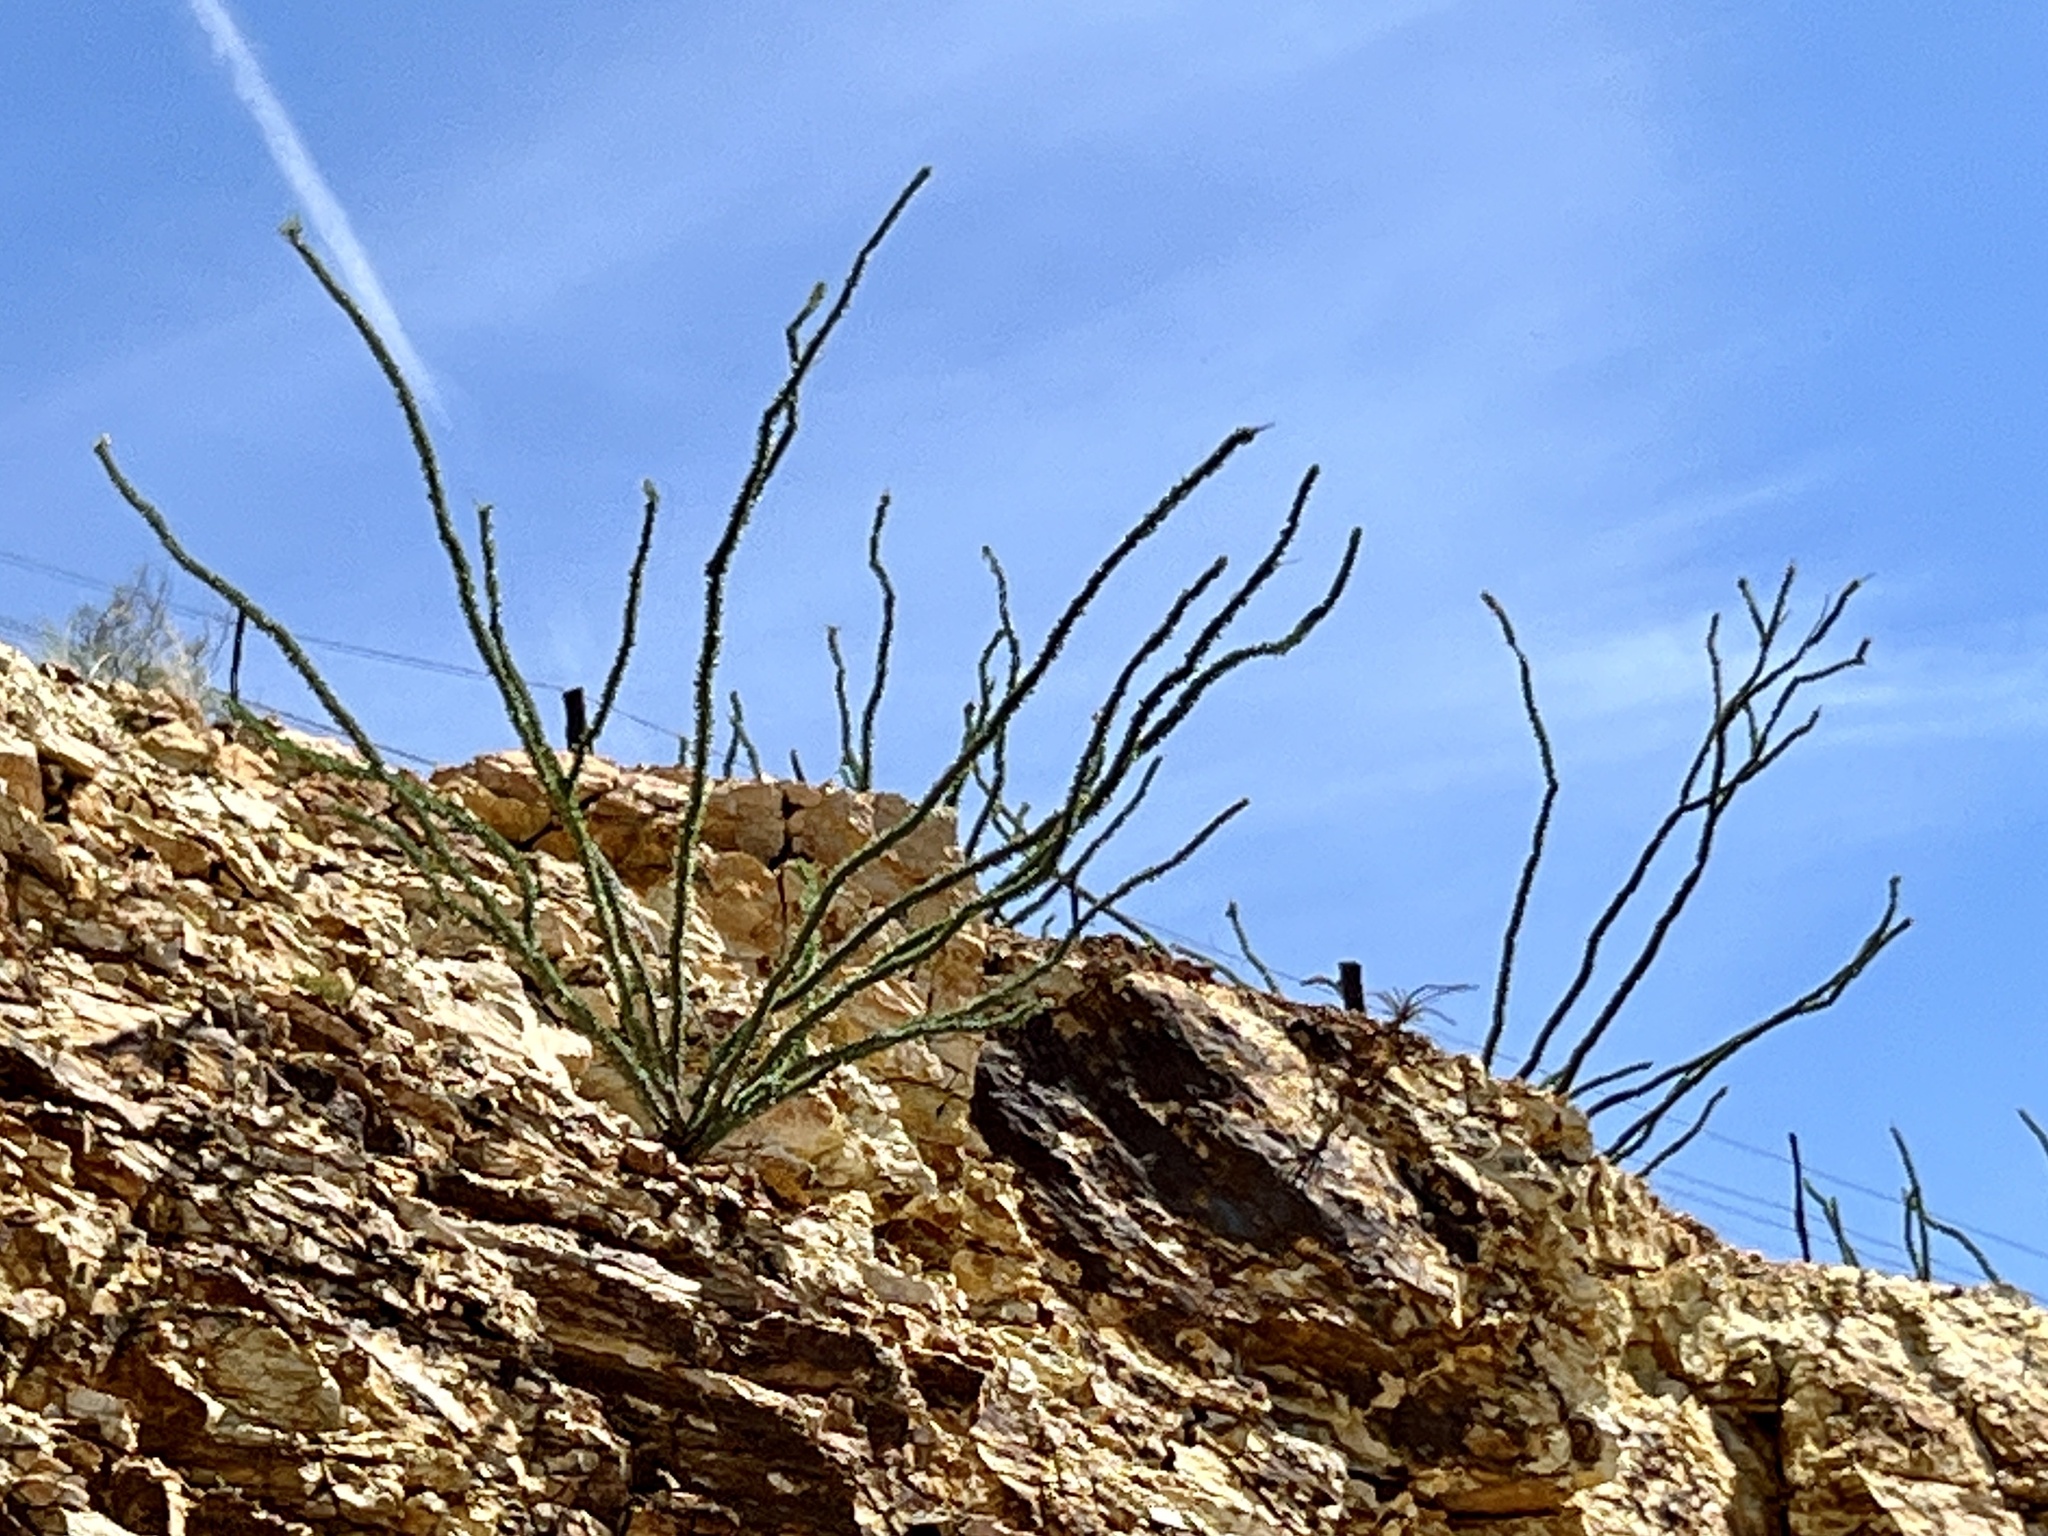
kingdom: Plantae
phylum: Tracheophyta
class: Magnoliopsida
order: Ericales
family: Fouquieriaceae
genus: Fouquieria
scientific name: Fouquieria splendens
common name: Vine-cactus
